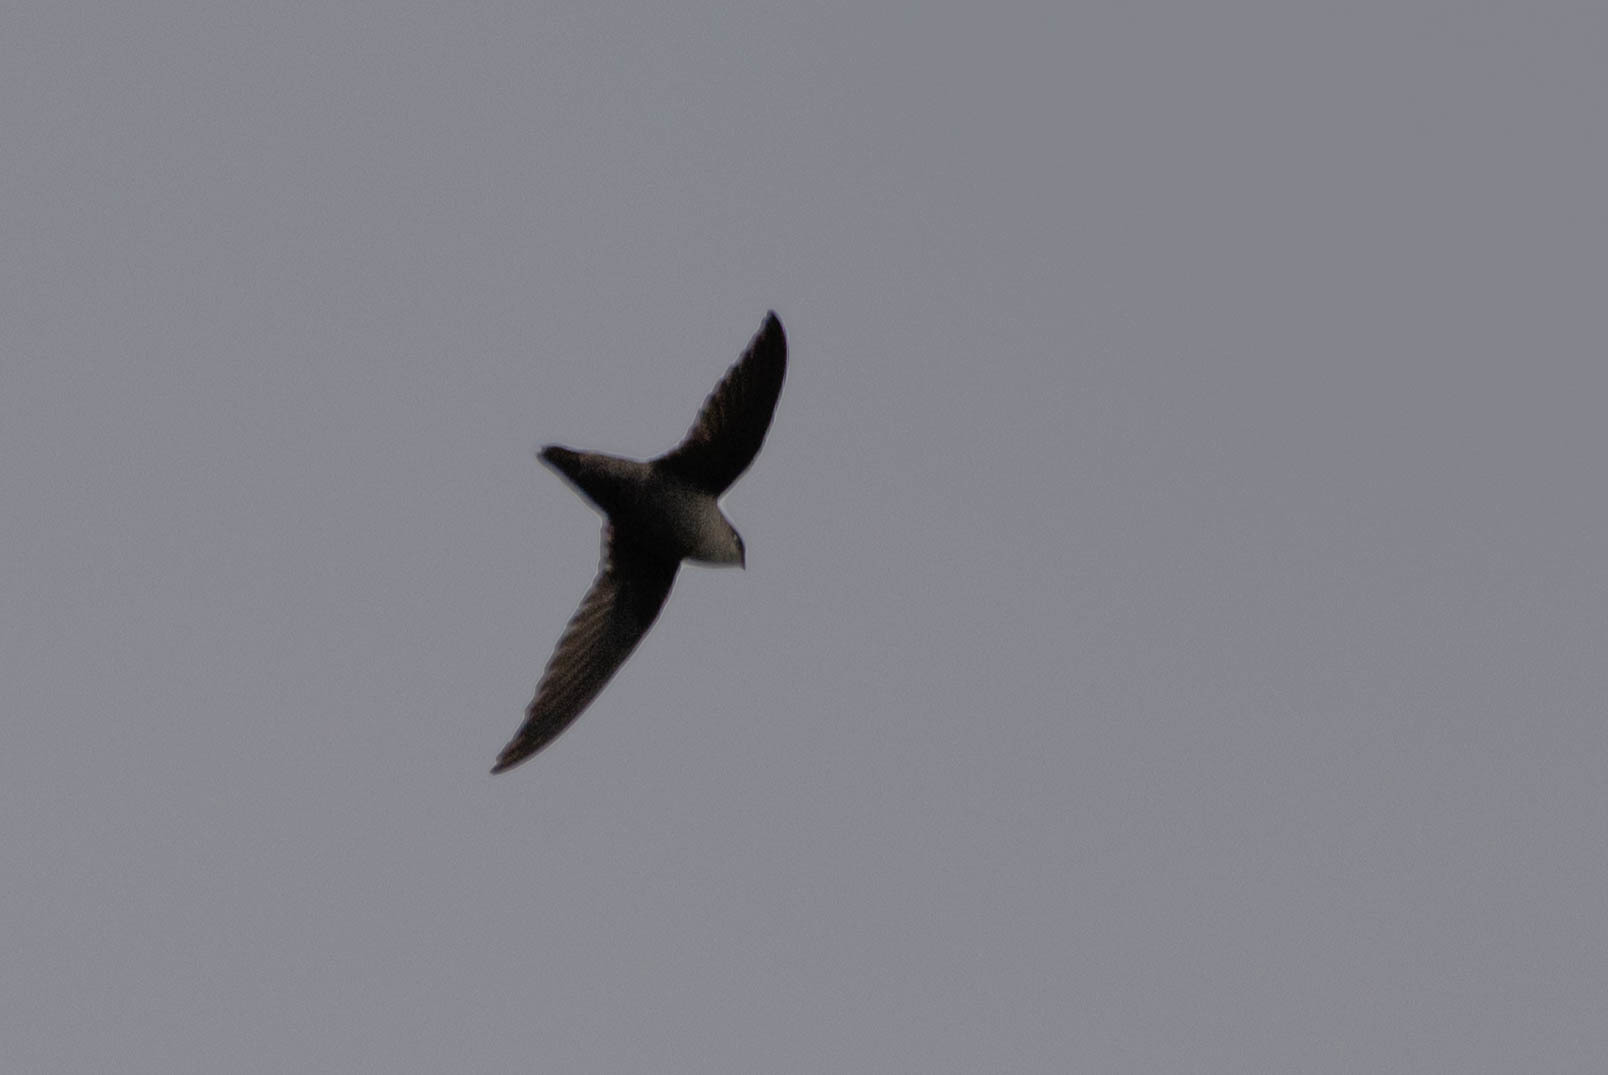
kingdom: Animalia
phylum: Chordata
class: Aves
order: Apodiformes
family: Apodidae
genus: Chaetura
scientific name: Chaetura pelagica
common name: Chimney swift
